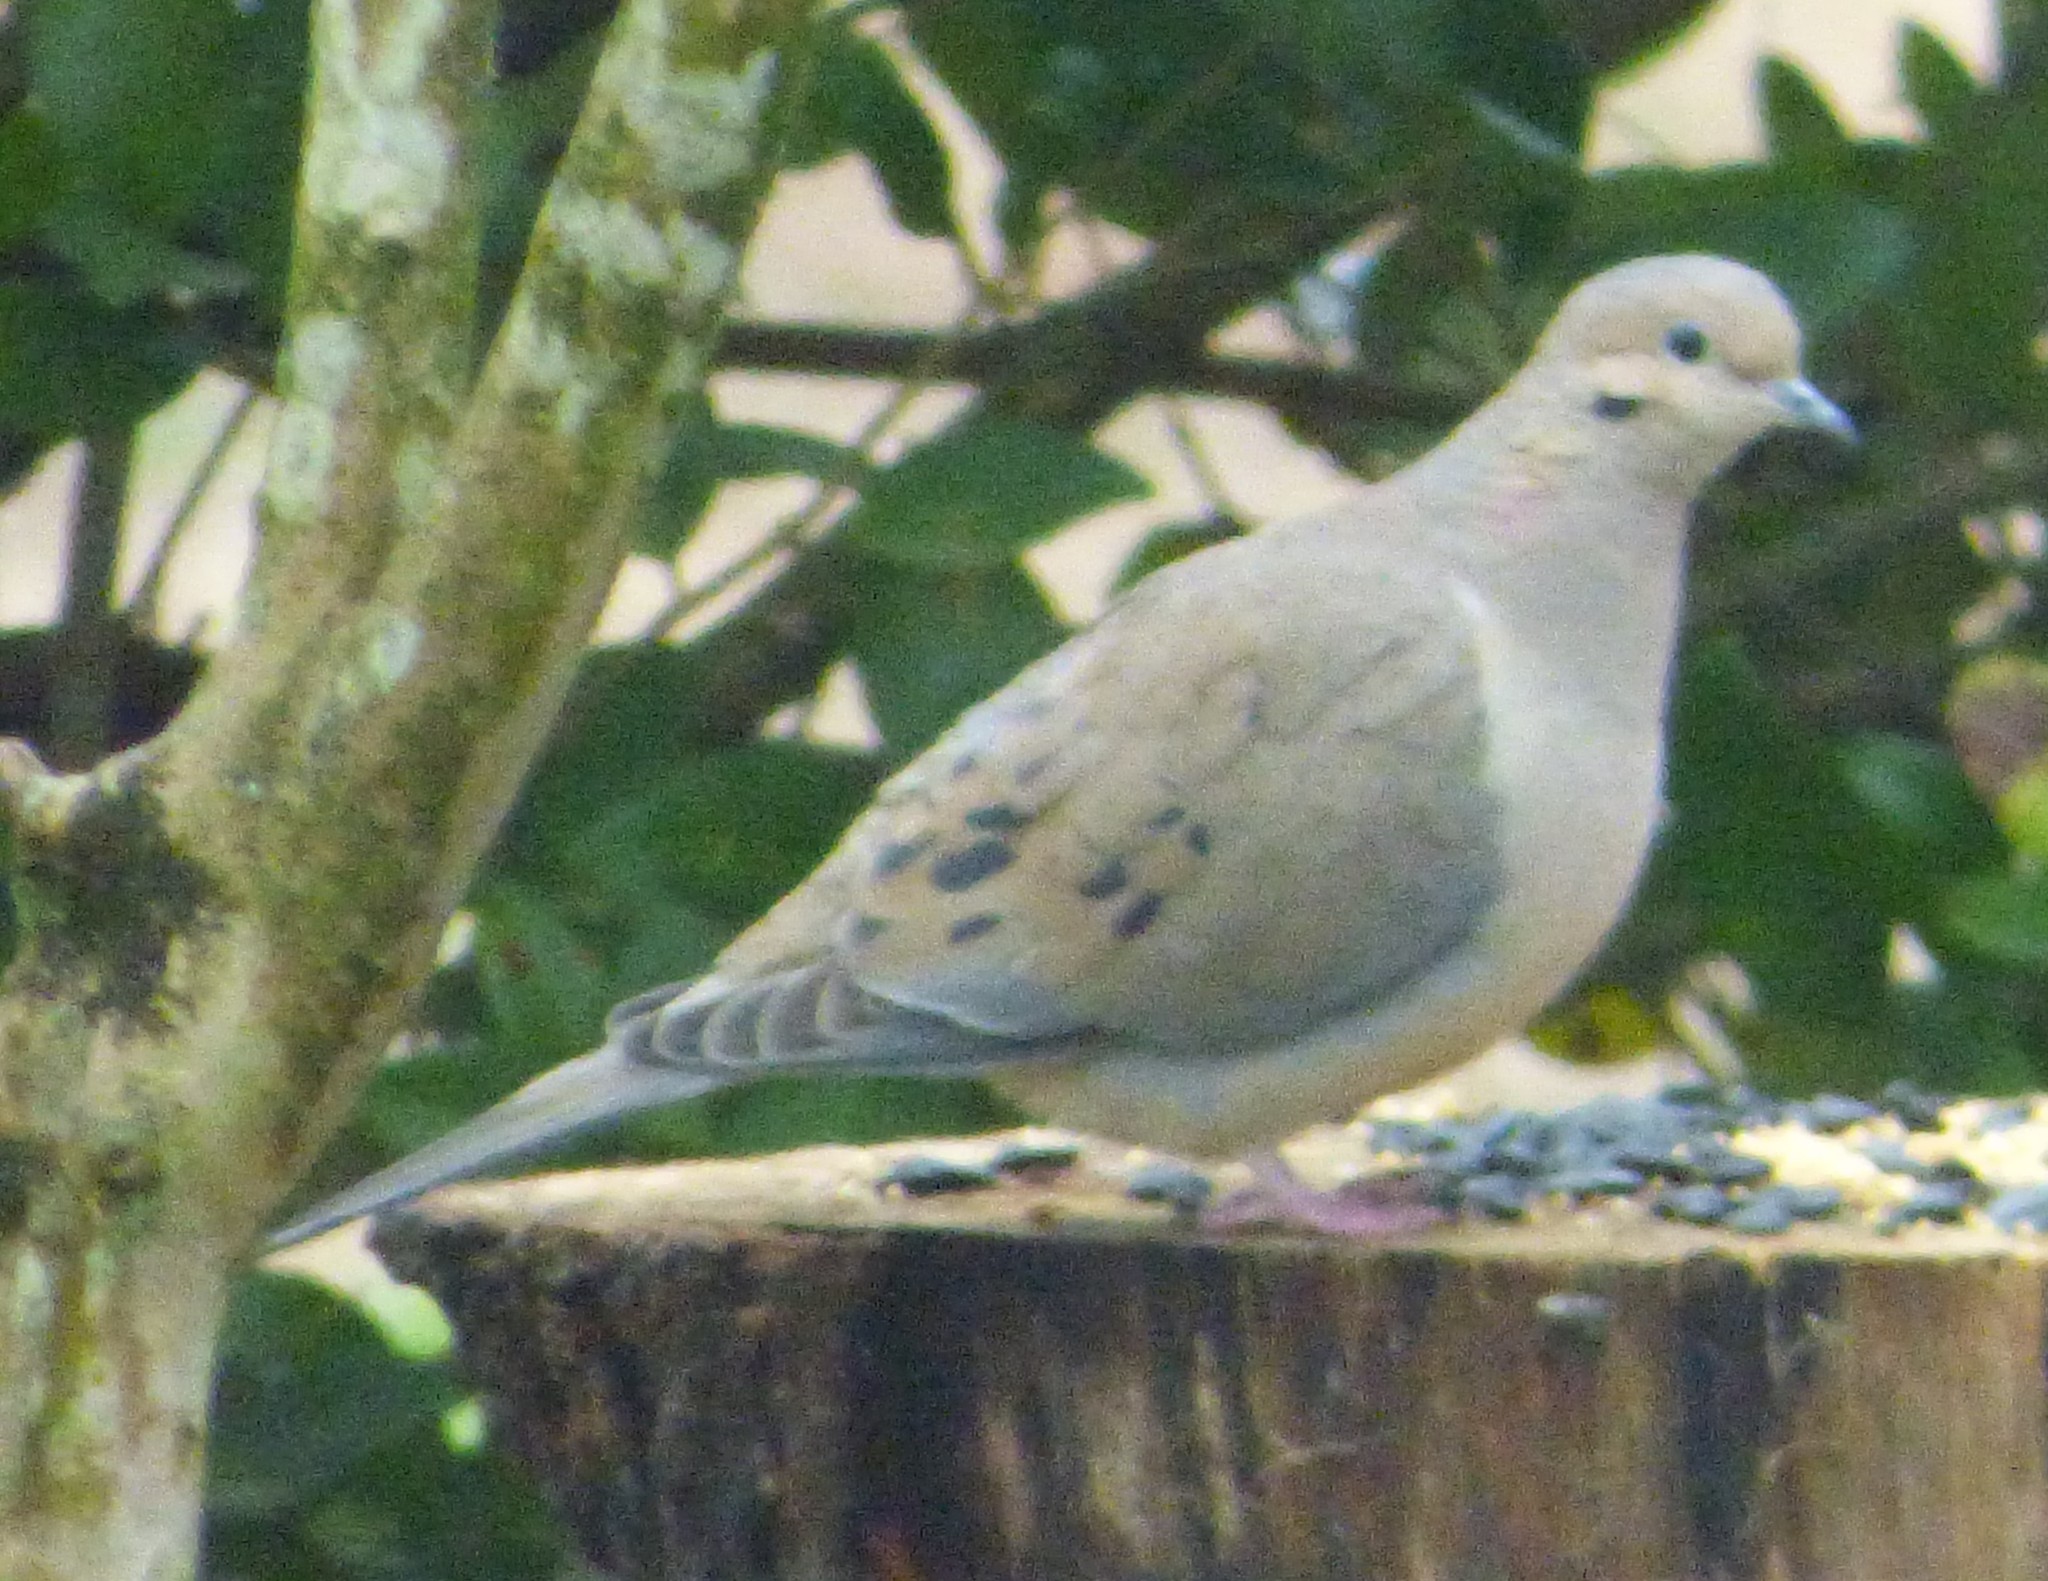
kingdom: Animalia
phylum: Chordata
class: Aves
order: Columbiformes
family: Columbidae
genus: Zenaida
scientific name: Zenaida macroura
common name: Mourning dove
